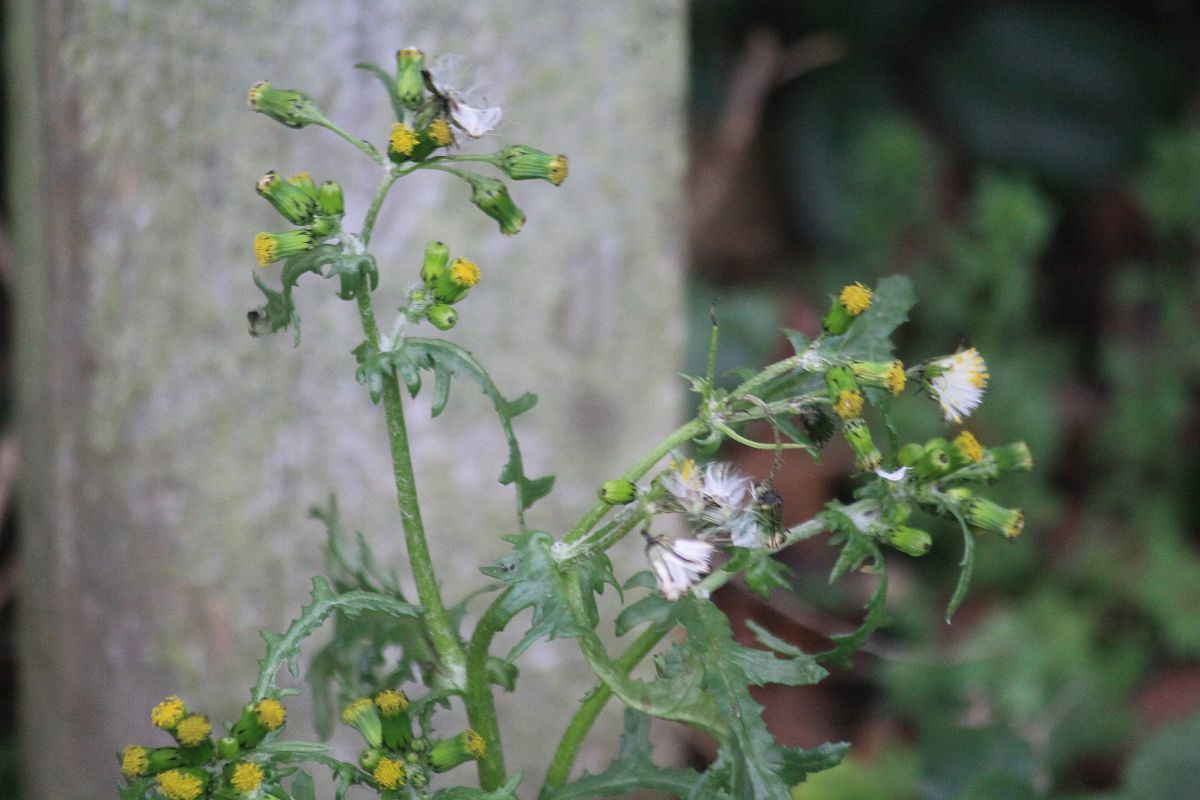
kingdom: Plantae
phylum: Tracheophyta
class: Magnoliopsida
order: Asterales
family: Asteraceae
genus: Senecio
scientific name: Senecio vulgaris
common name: Old-man-in-the-spring
